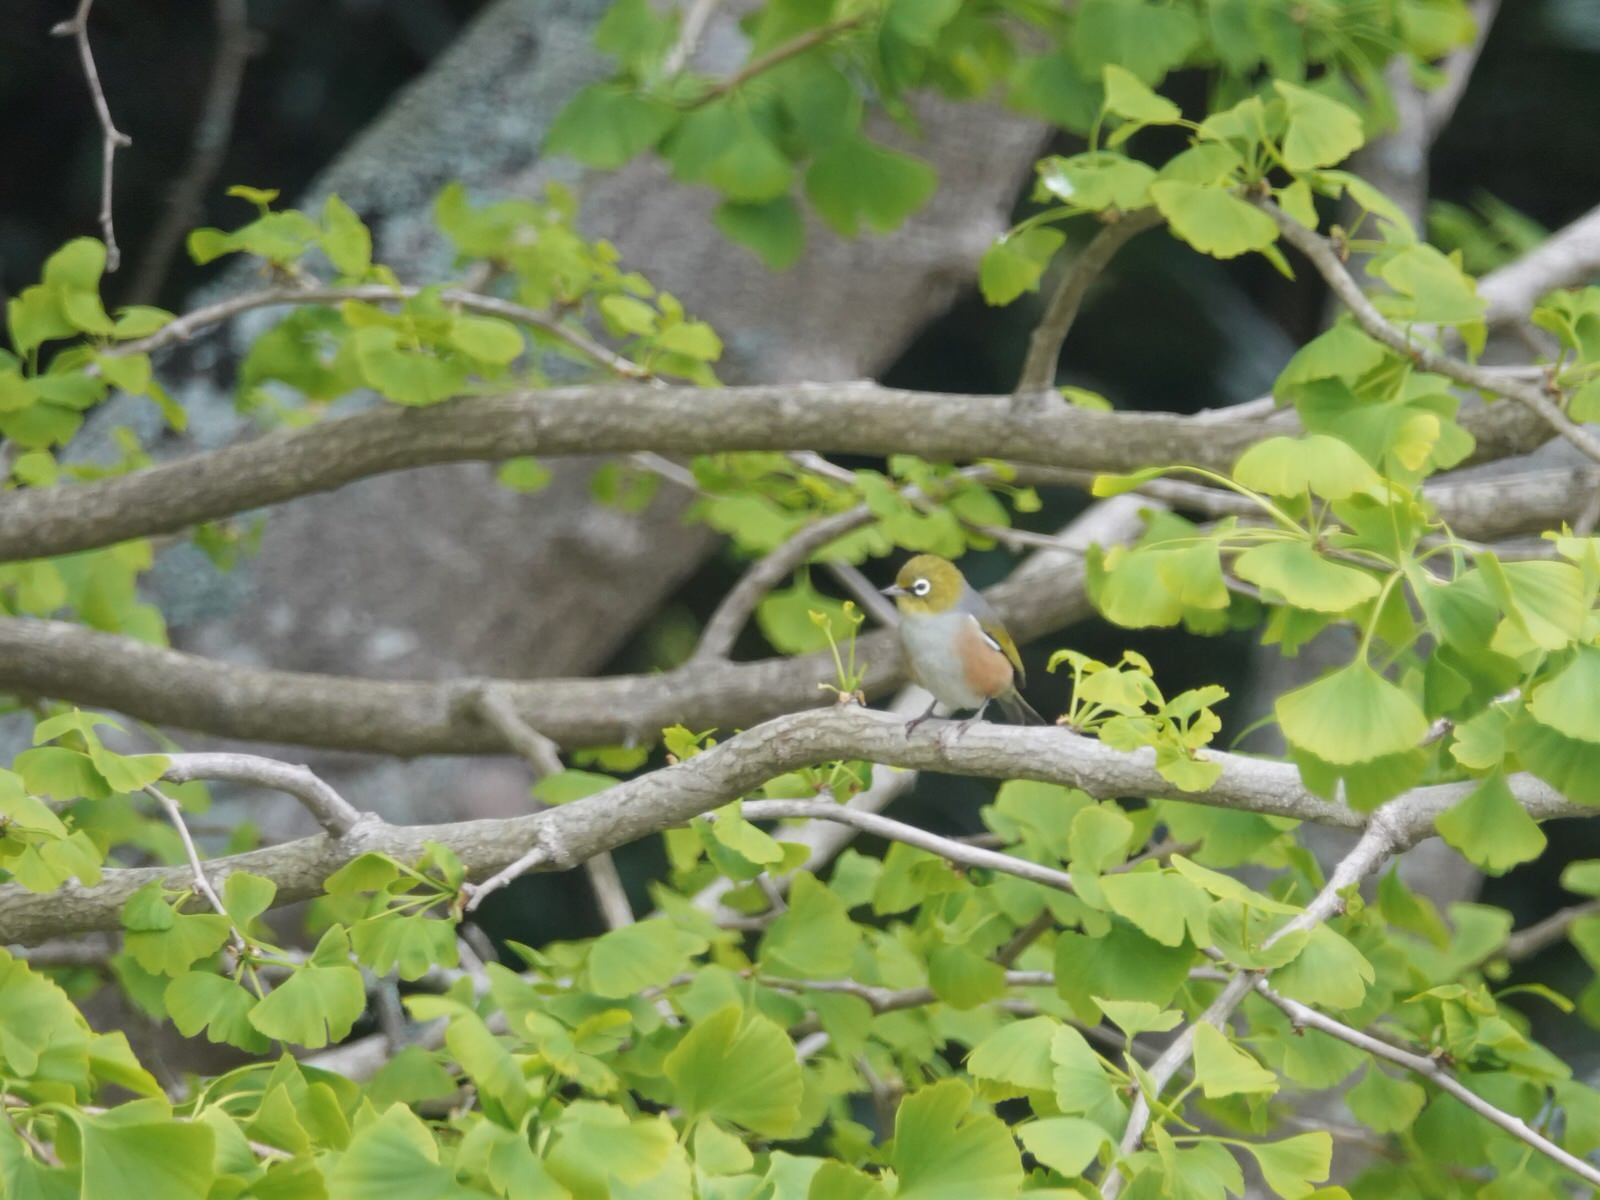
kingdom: Animalia
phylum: Chordata
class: Aves
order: Passeriformes
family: Zosteropidae
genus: Zosterops
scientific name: Zosterops lateralis
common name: Silvereye
